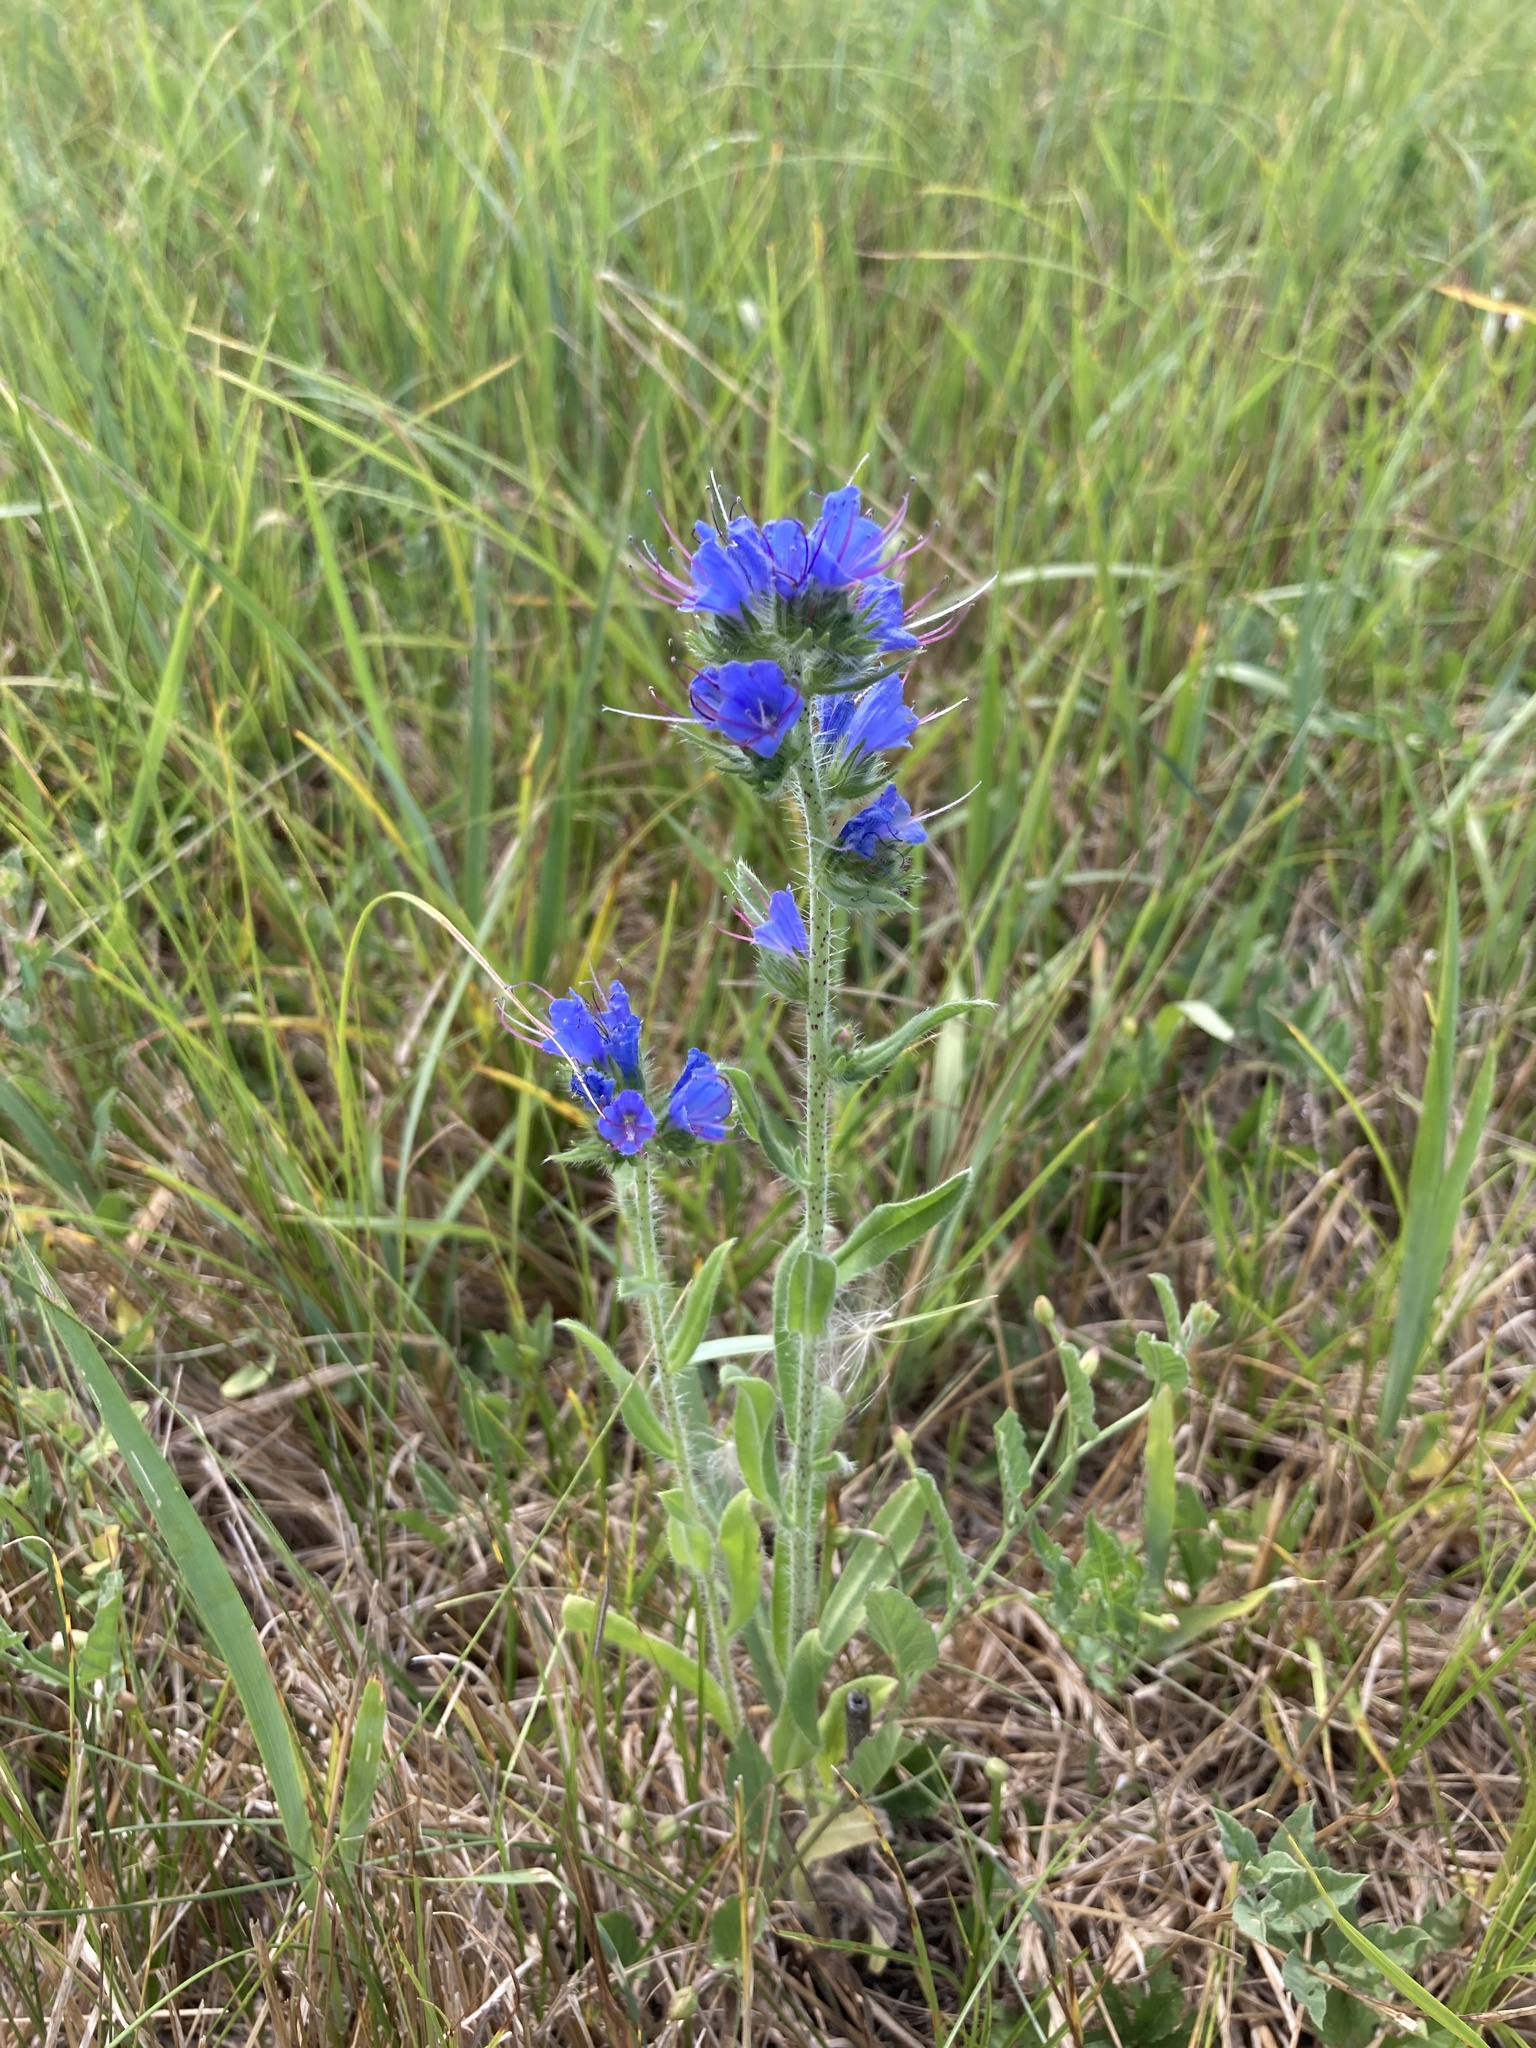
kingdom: Plantae
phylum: Tracheophyta
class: Magnoliopsida
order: Boraginales
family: Boraginaceae
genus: Echium
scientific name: Echium vulgare
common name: Common viper's bugloss
